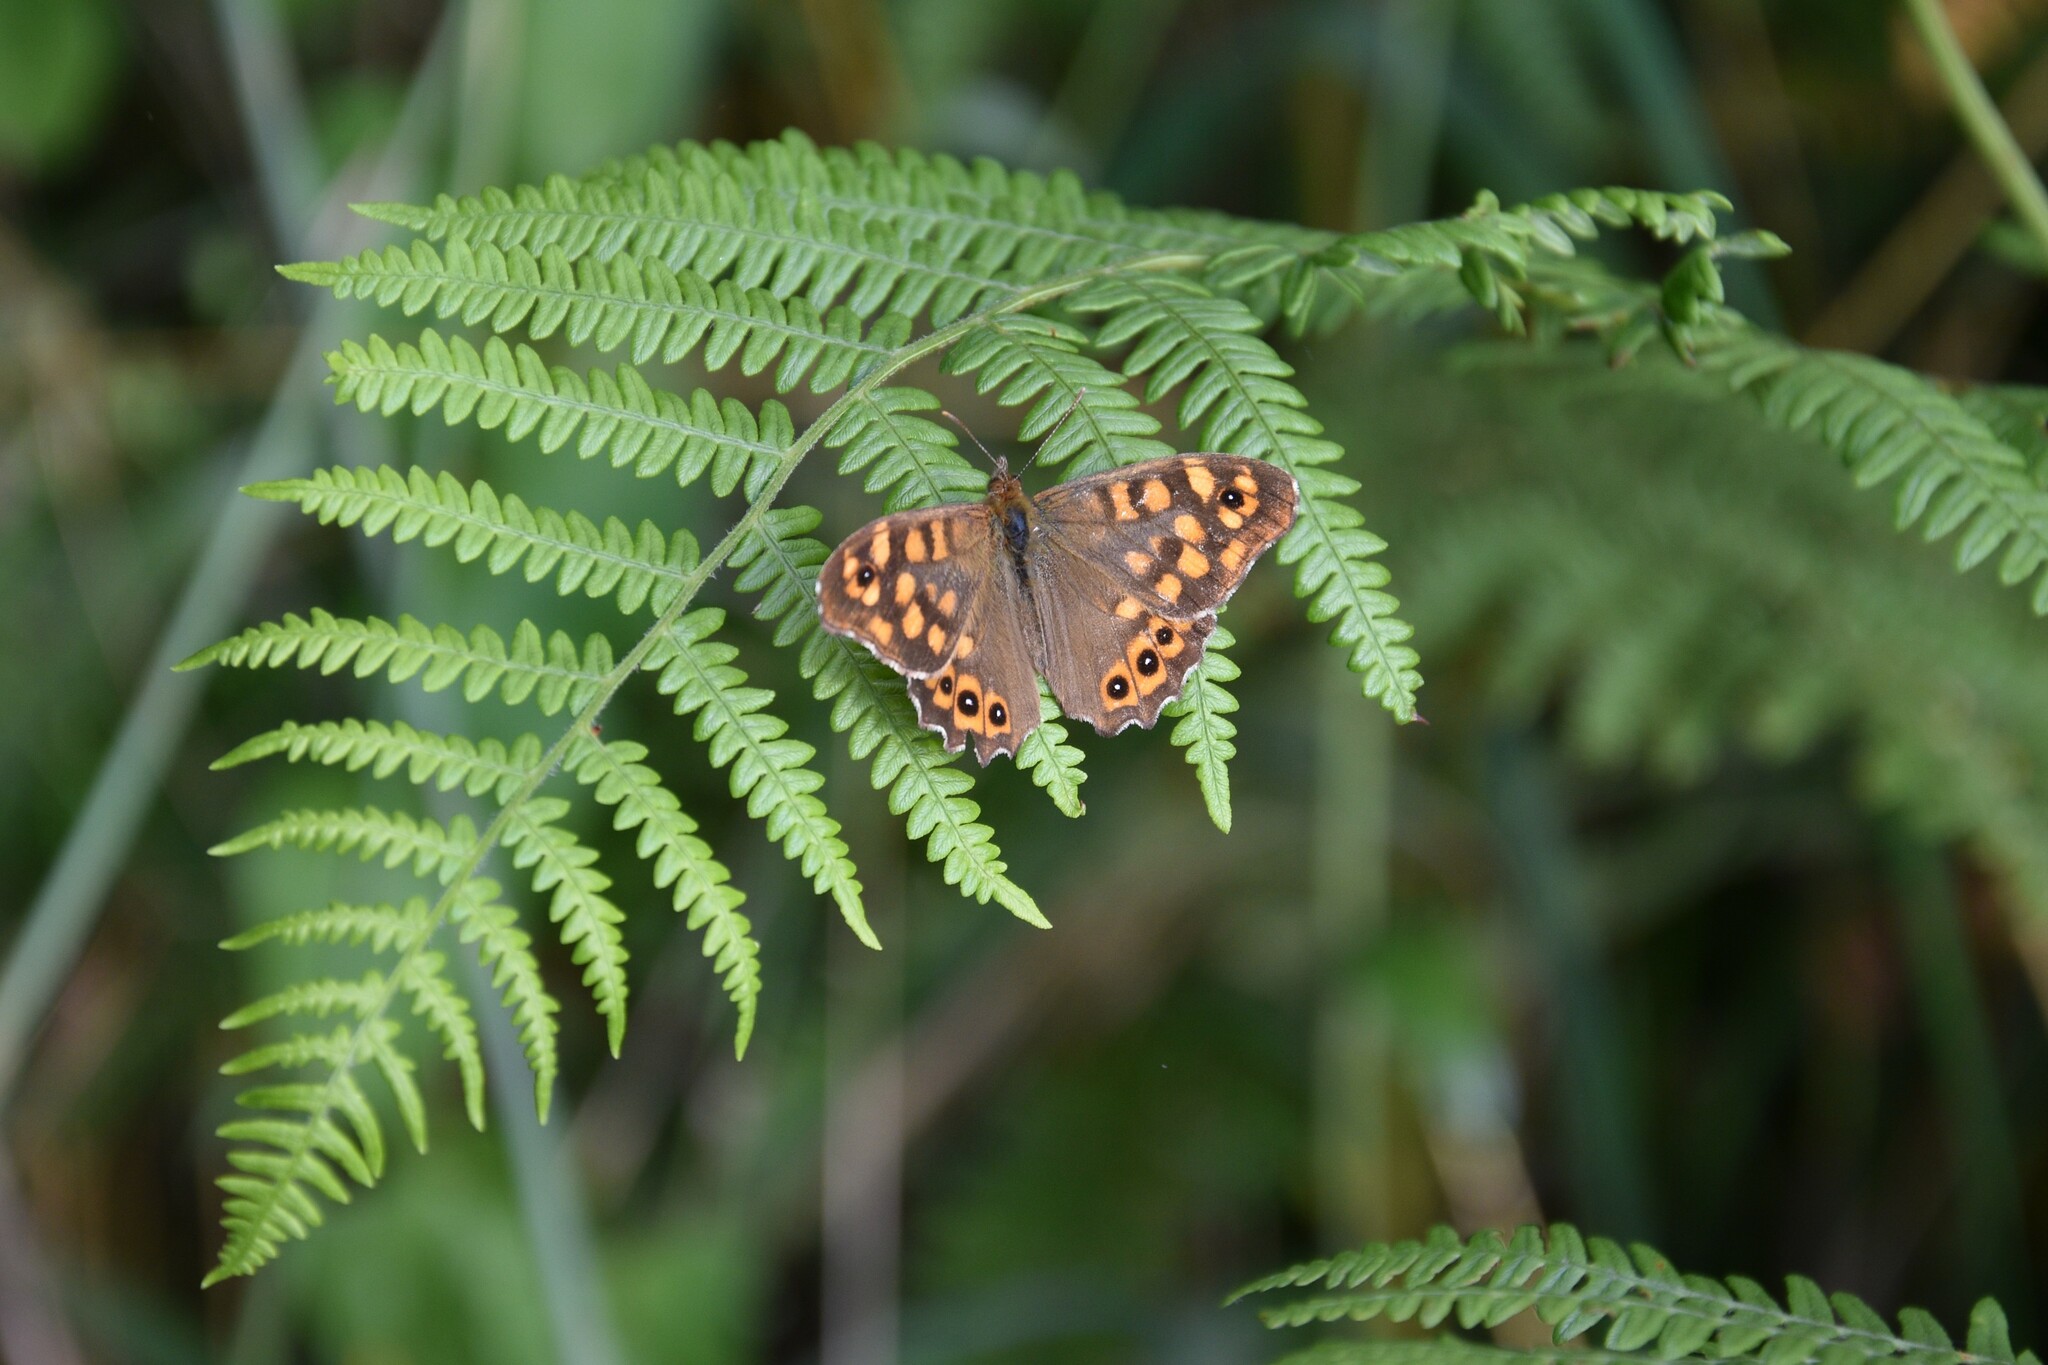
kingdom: Animalia
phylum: Arthropoda
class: Insecta
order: Lepidoptera
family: Nymphalidae
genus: Pararge
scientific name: Pararge aegeria
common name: Speckled wood
